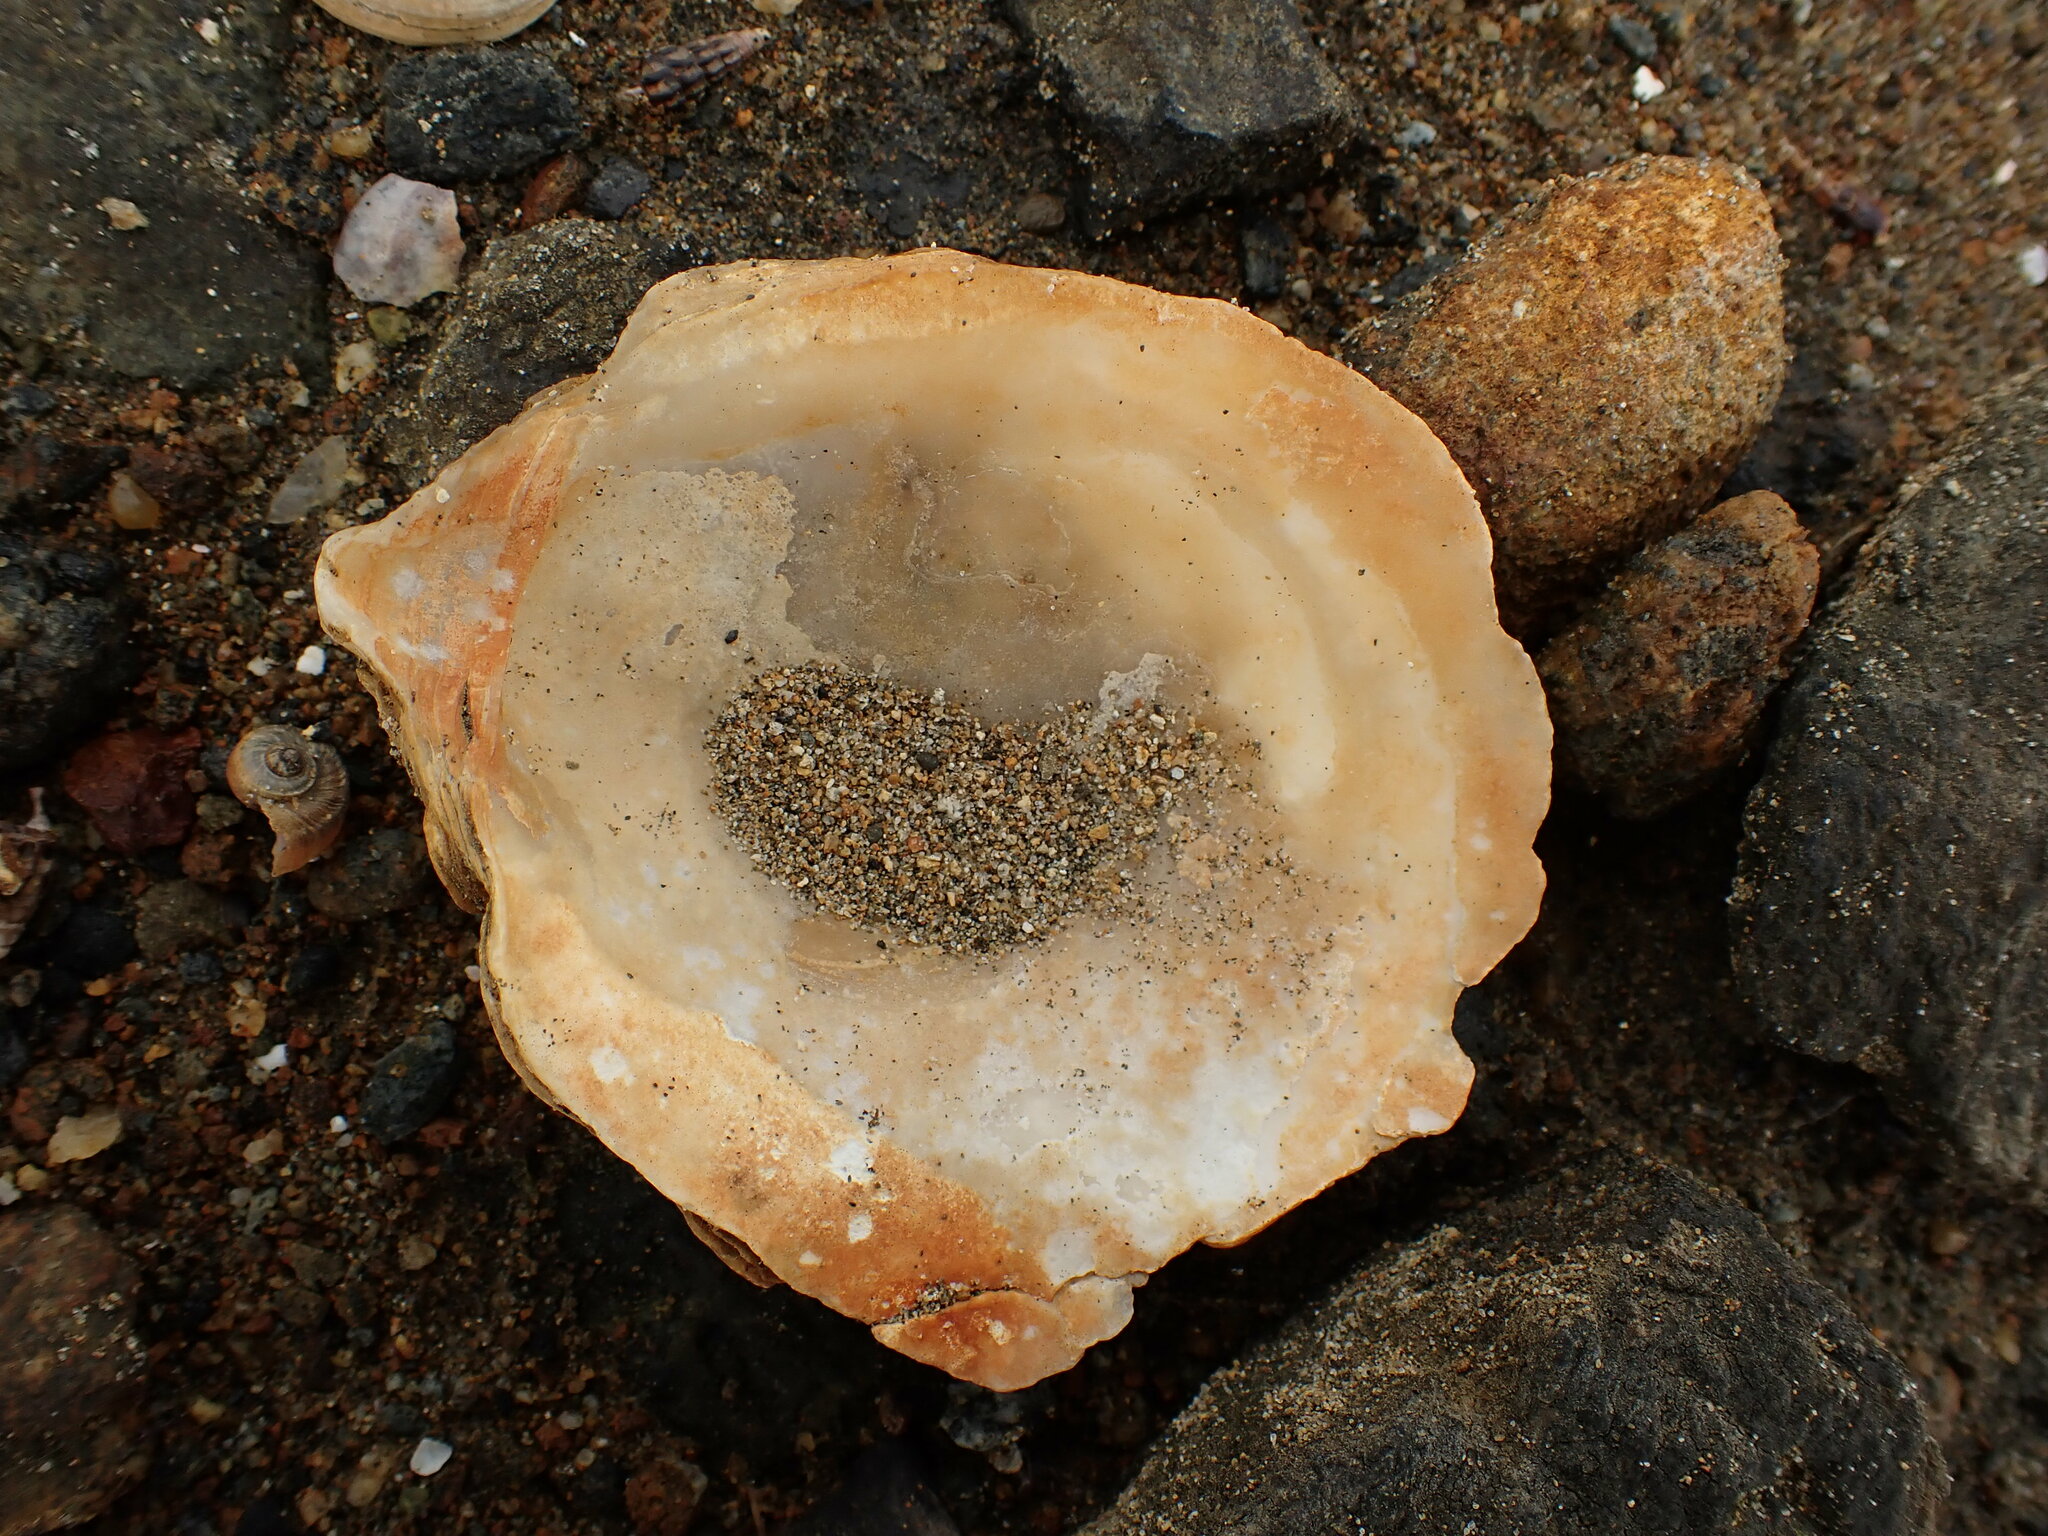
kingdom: Animalia
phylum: Mollusca
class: Bivalvia
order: Ostreida
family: Ostreidae
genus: Ostrea
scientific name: Ostrea chilensis
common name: Chilean oyster
